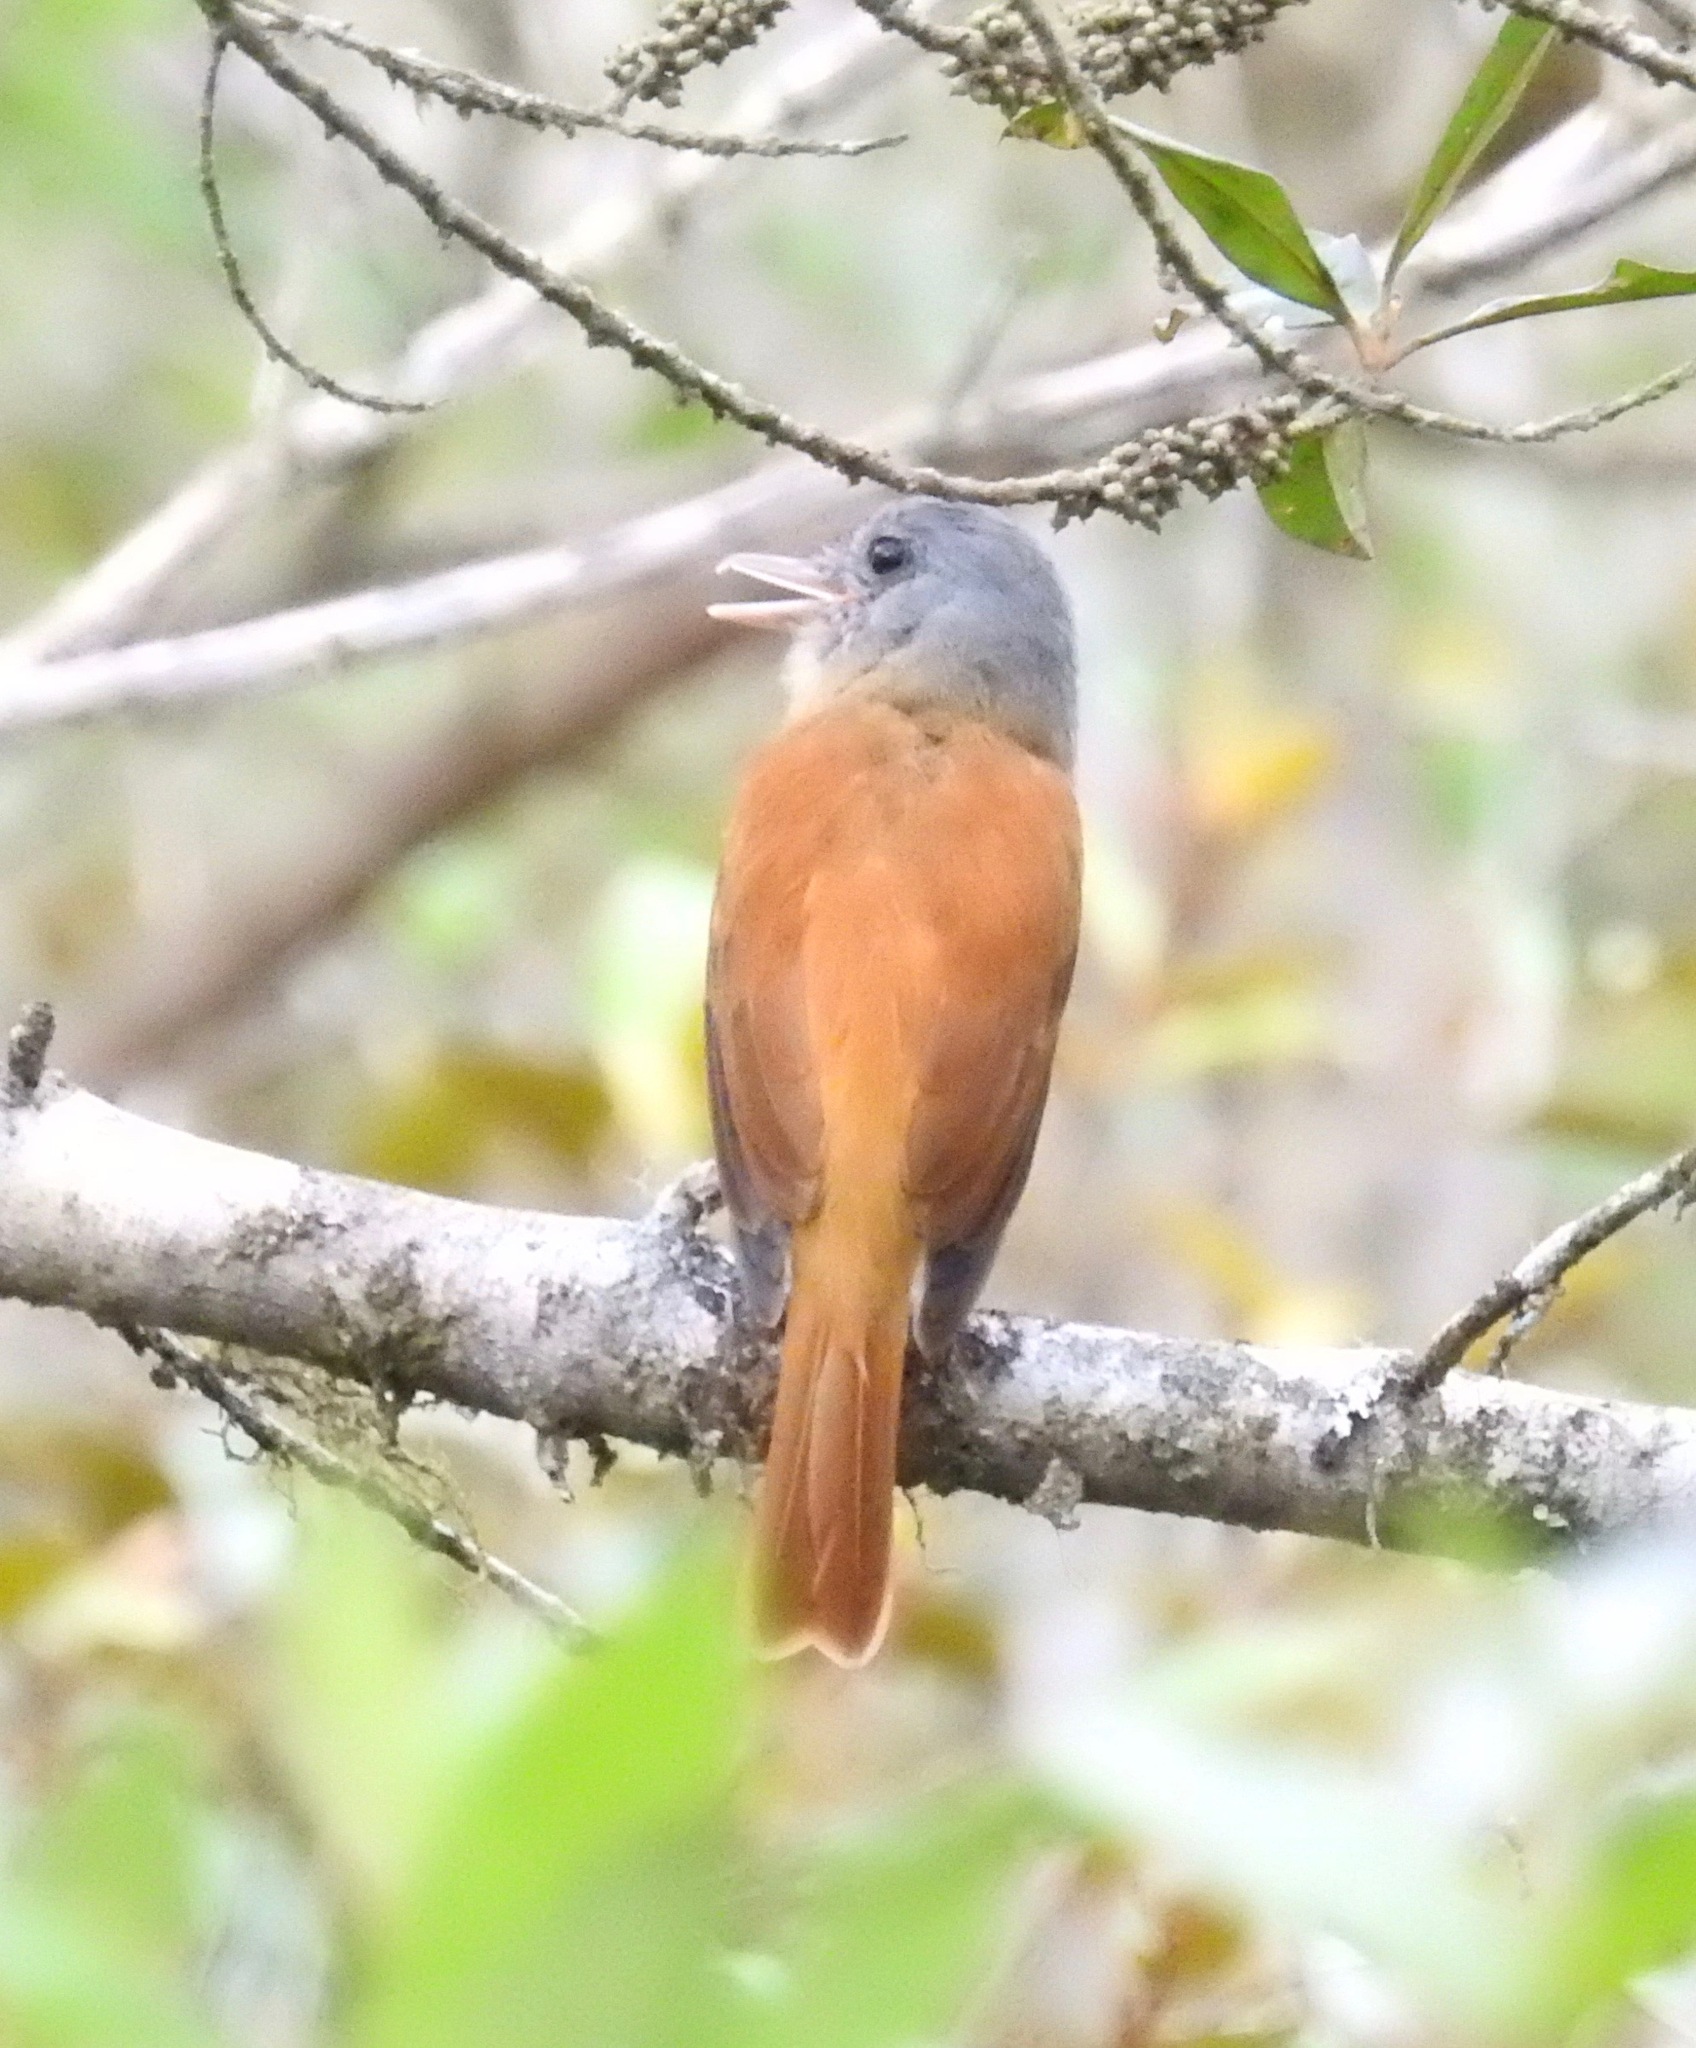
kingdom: Animalia
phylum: Chordata
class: Aves
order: Passeriformes
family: Tyrannidae
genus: Attila
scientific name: Attila rufus
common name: Grey-hooded attila
